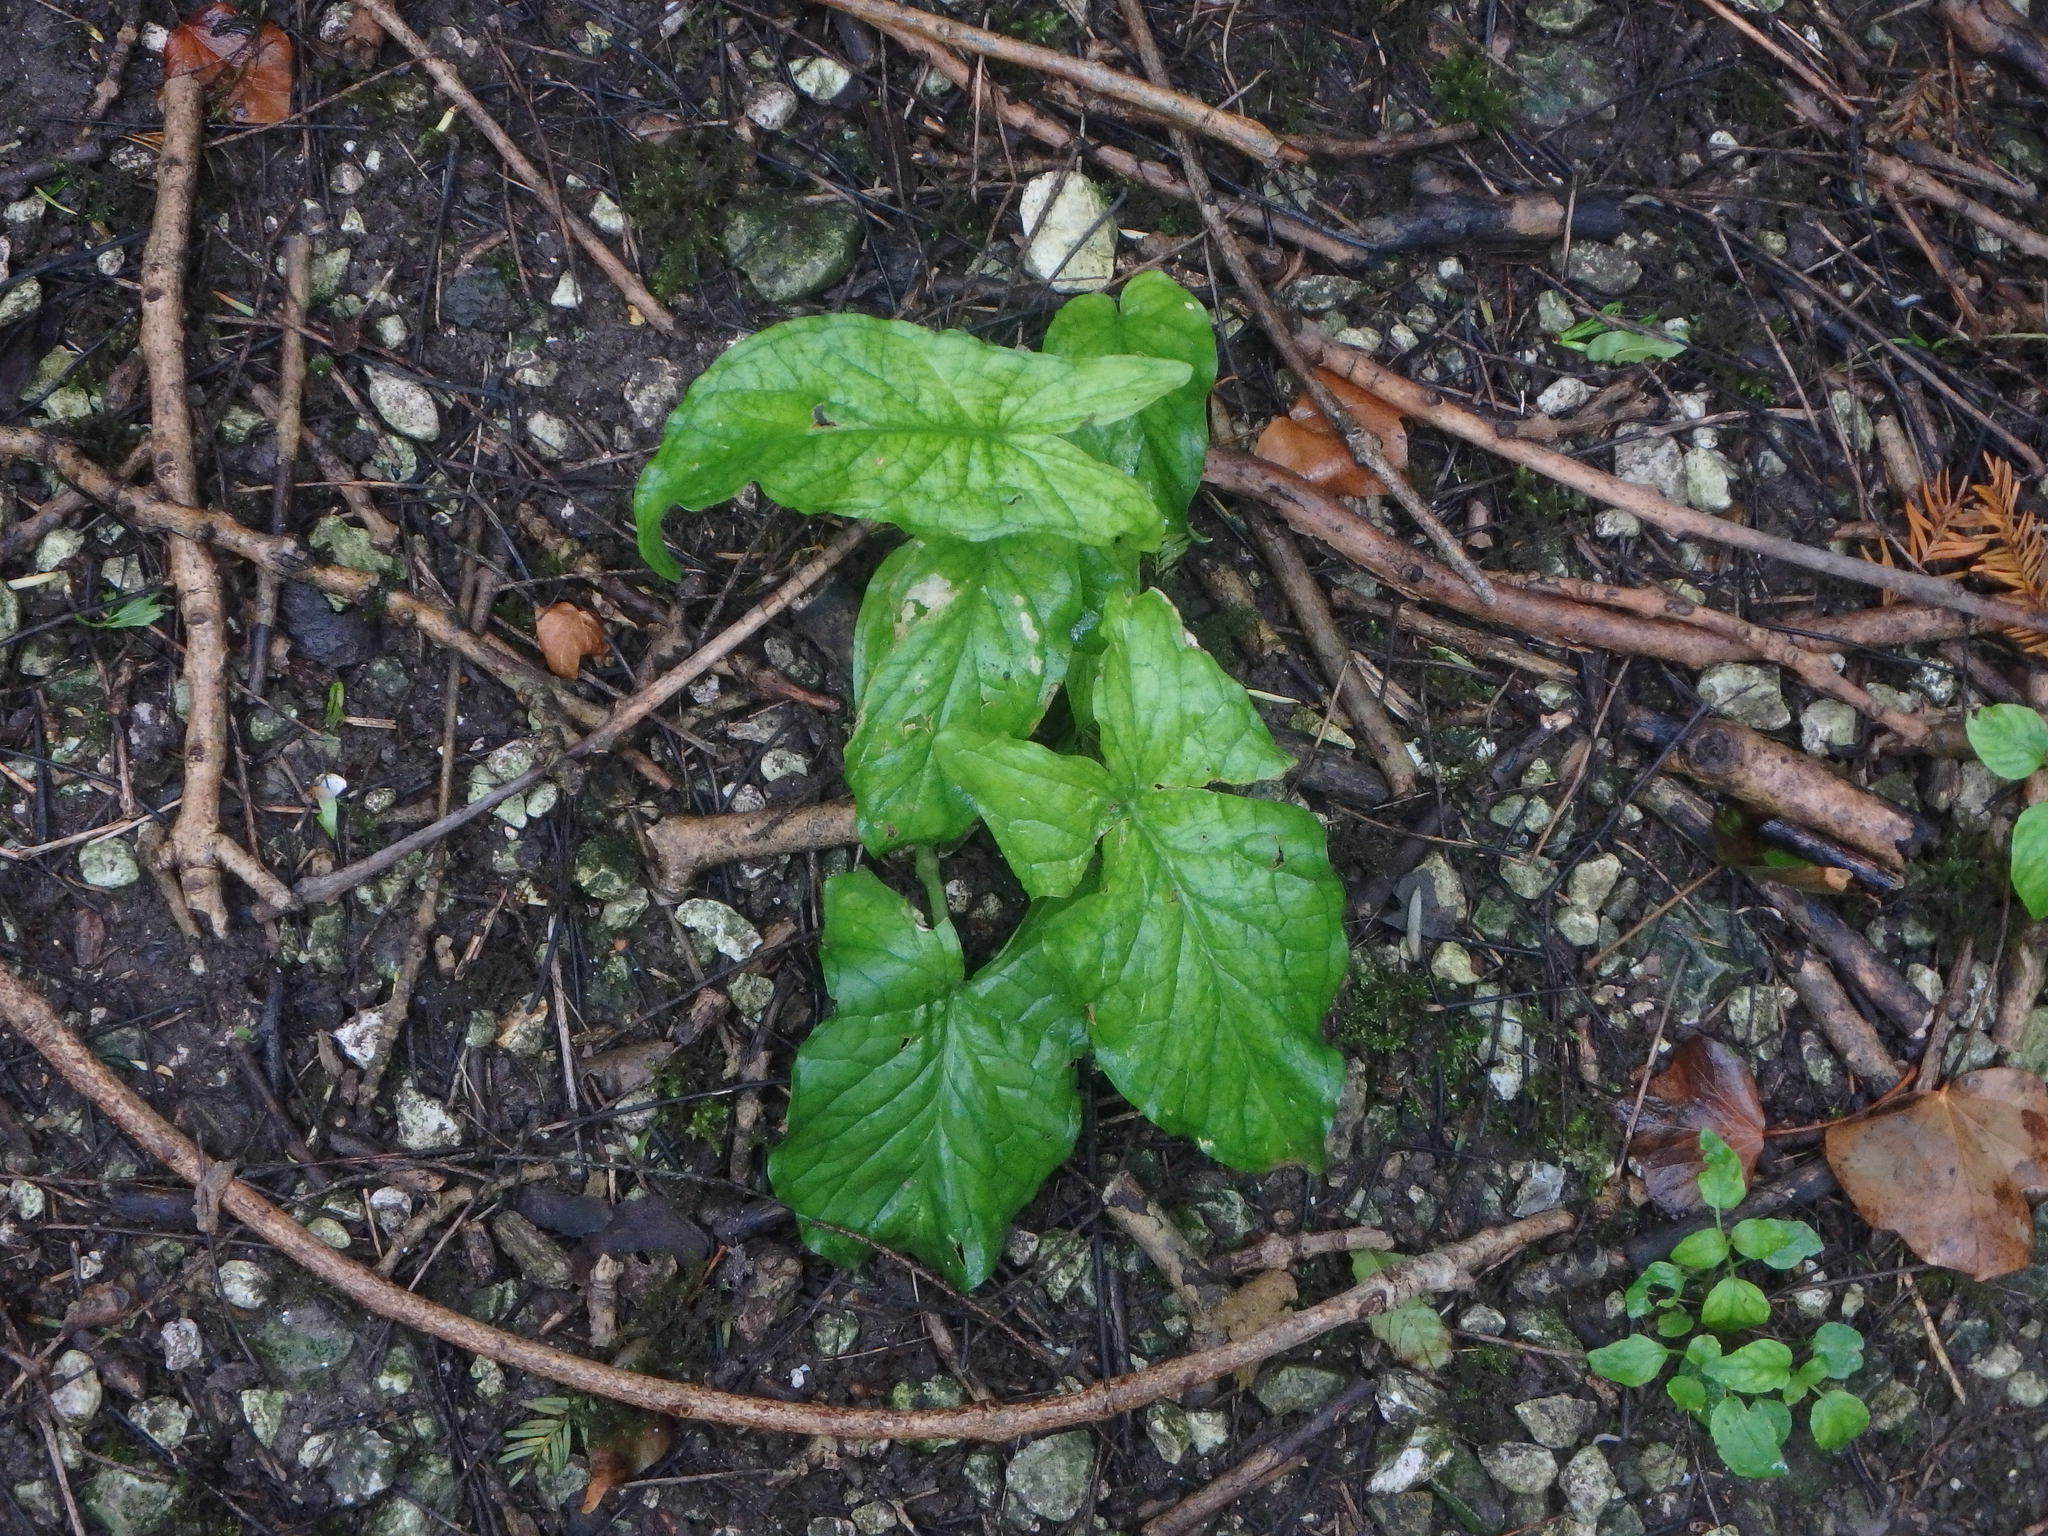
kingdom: Plantae
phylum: Tracheophyta
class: Liliopsida
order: Alismatales
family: Araceae
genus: Arum
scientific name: Arum maculatum
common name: Lords-and-ladies
